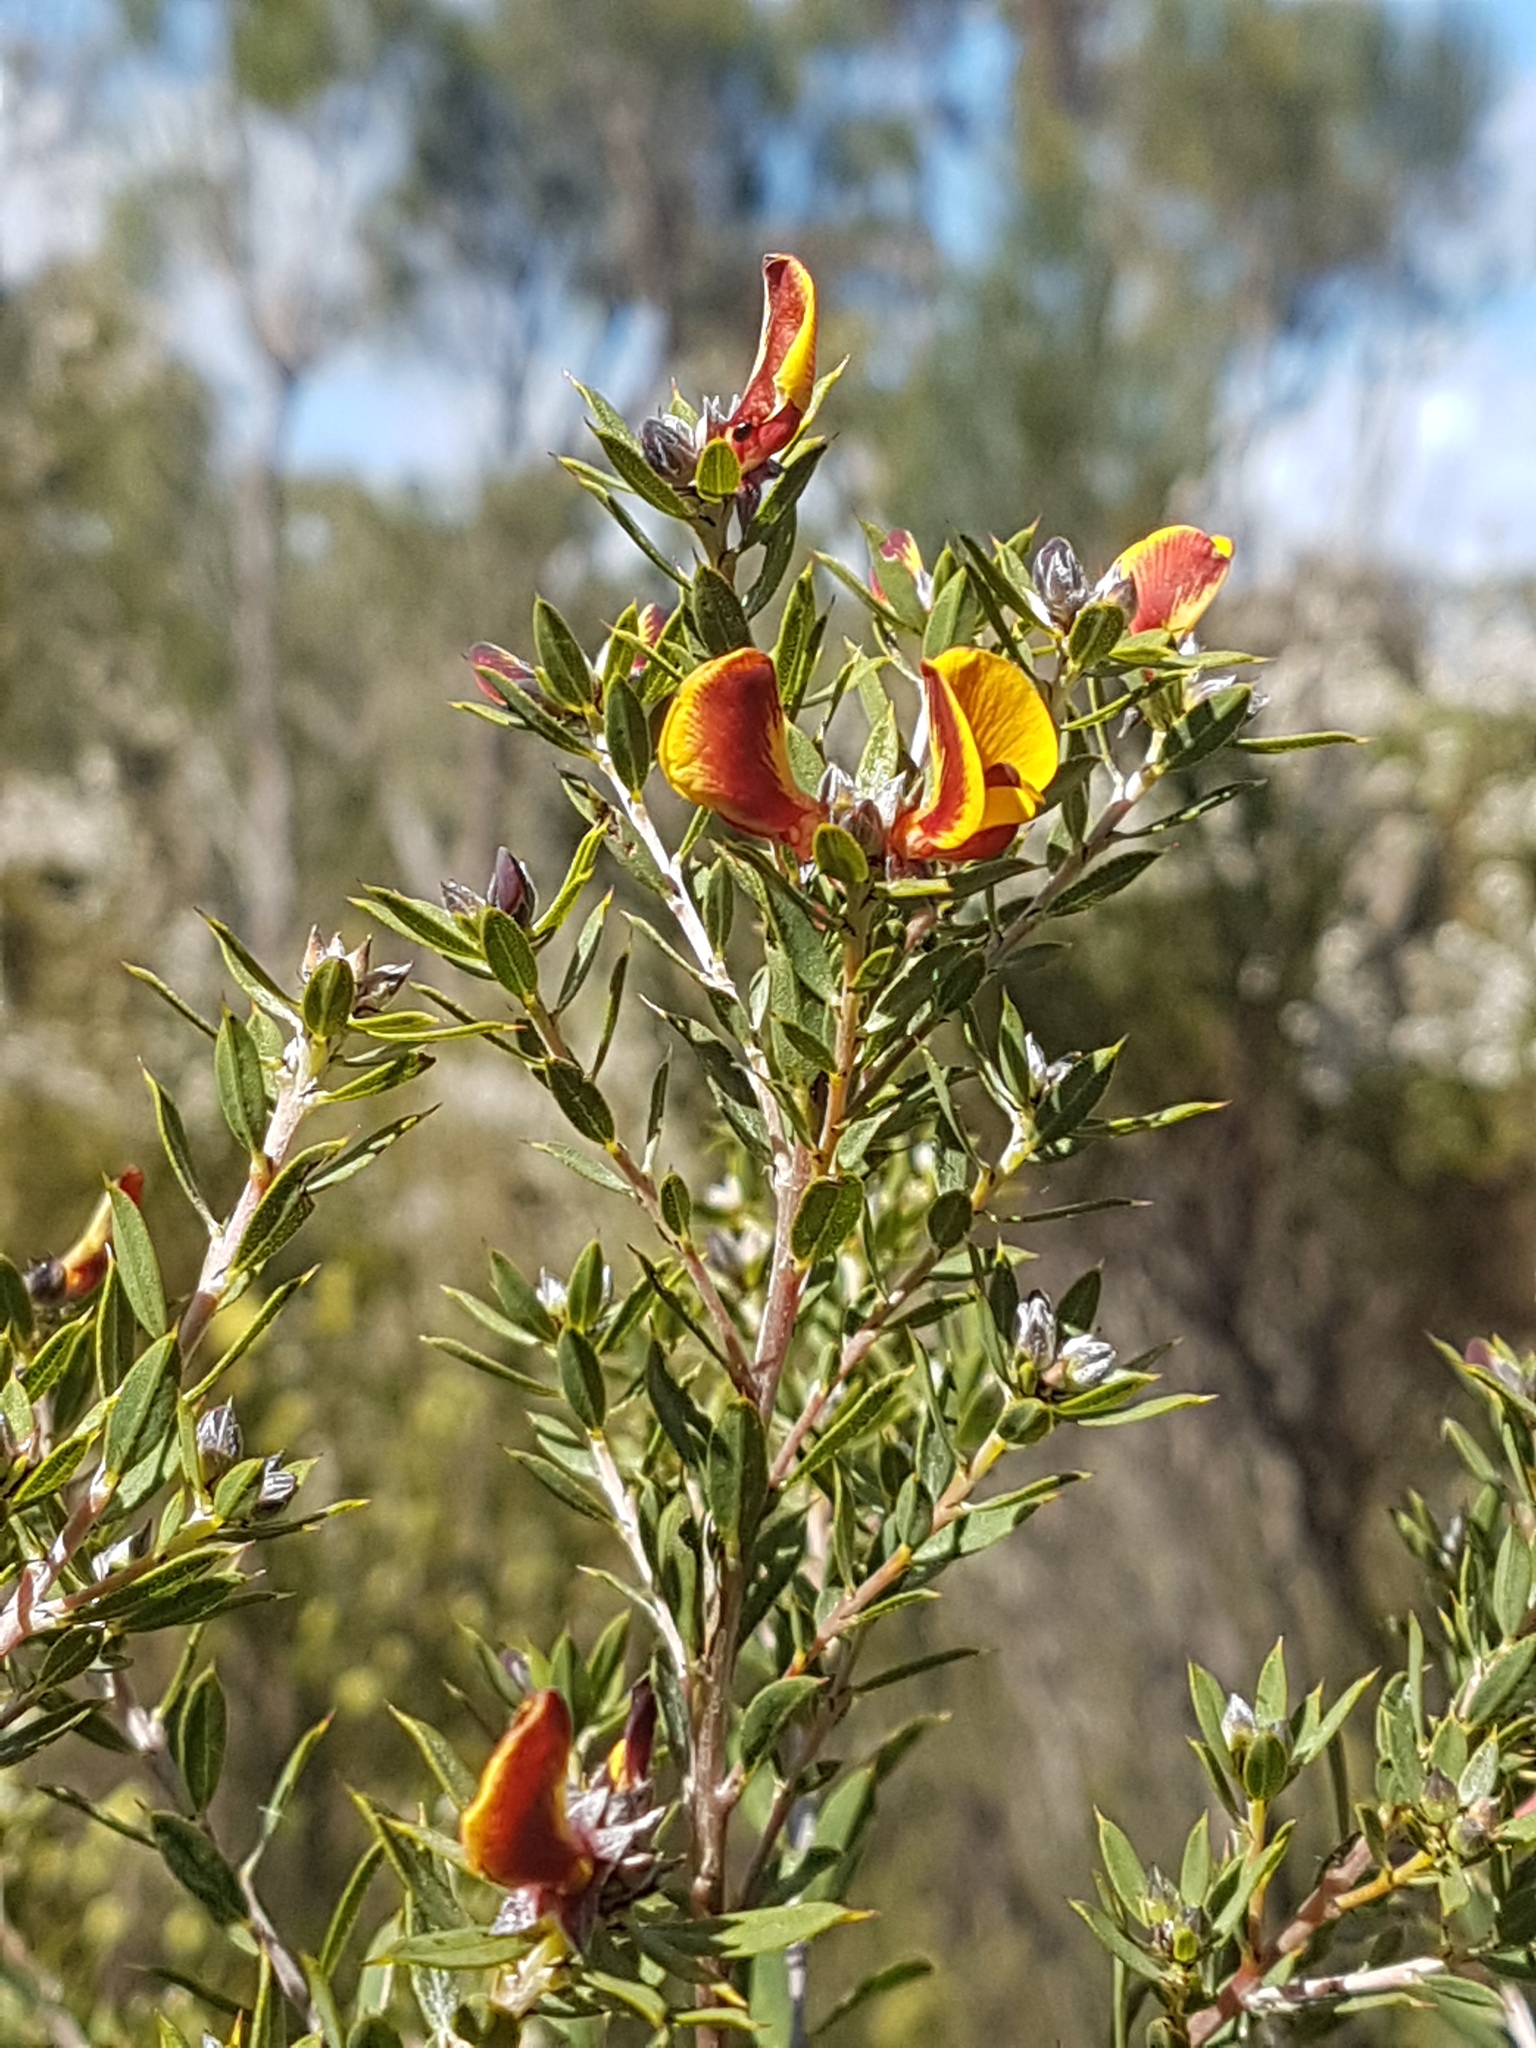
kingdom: Plantae
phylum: Tracheophyta
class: Magnoliopsida
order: Fabales
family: Fabaceae
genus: Pultenaea
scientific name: Pultenaea reticulata
